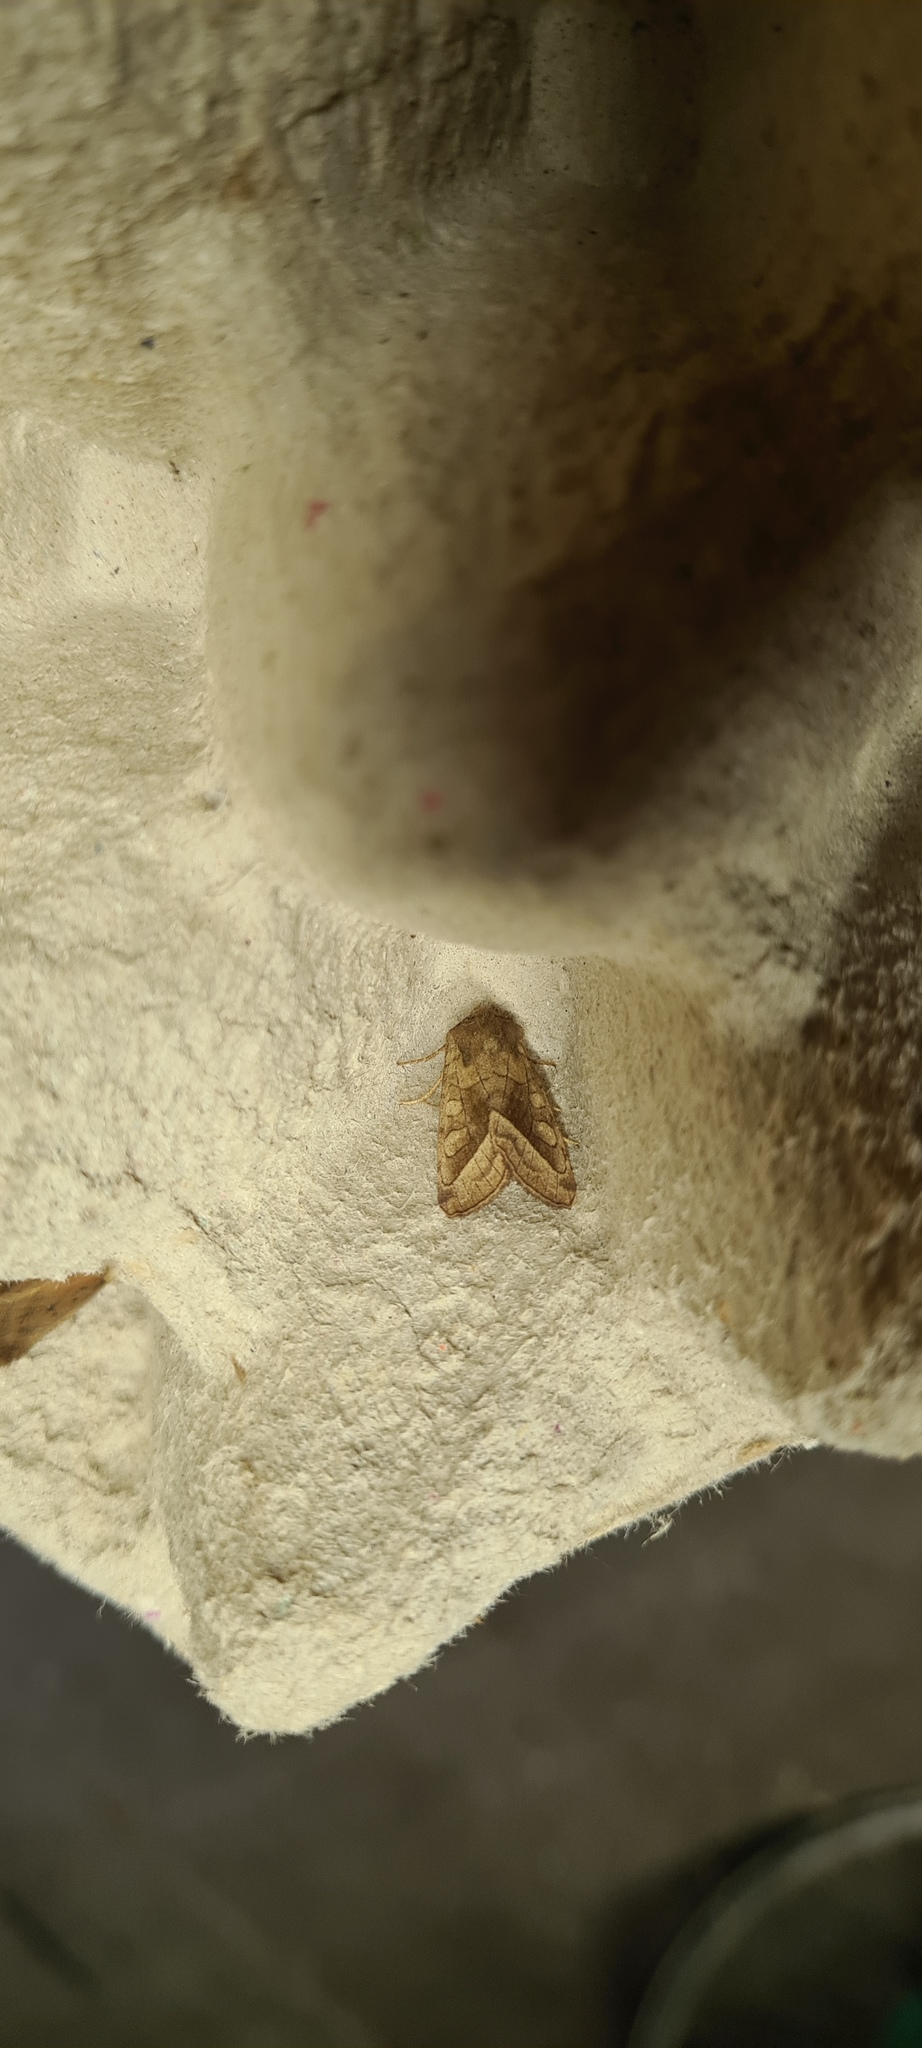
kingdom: Animalia
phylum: Arthropoda
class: Insecta
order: Lepidoptera
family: Noctuidae
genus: Hydraecia
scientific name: Hydraecia micacea
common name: Rosy rustic
